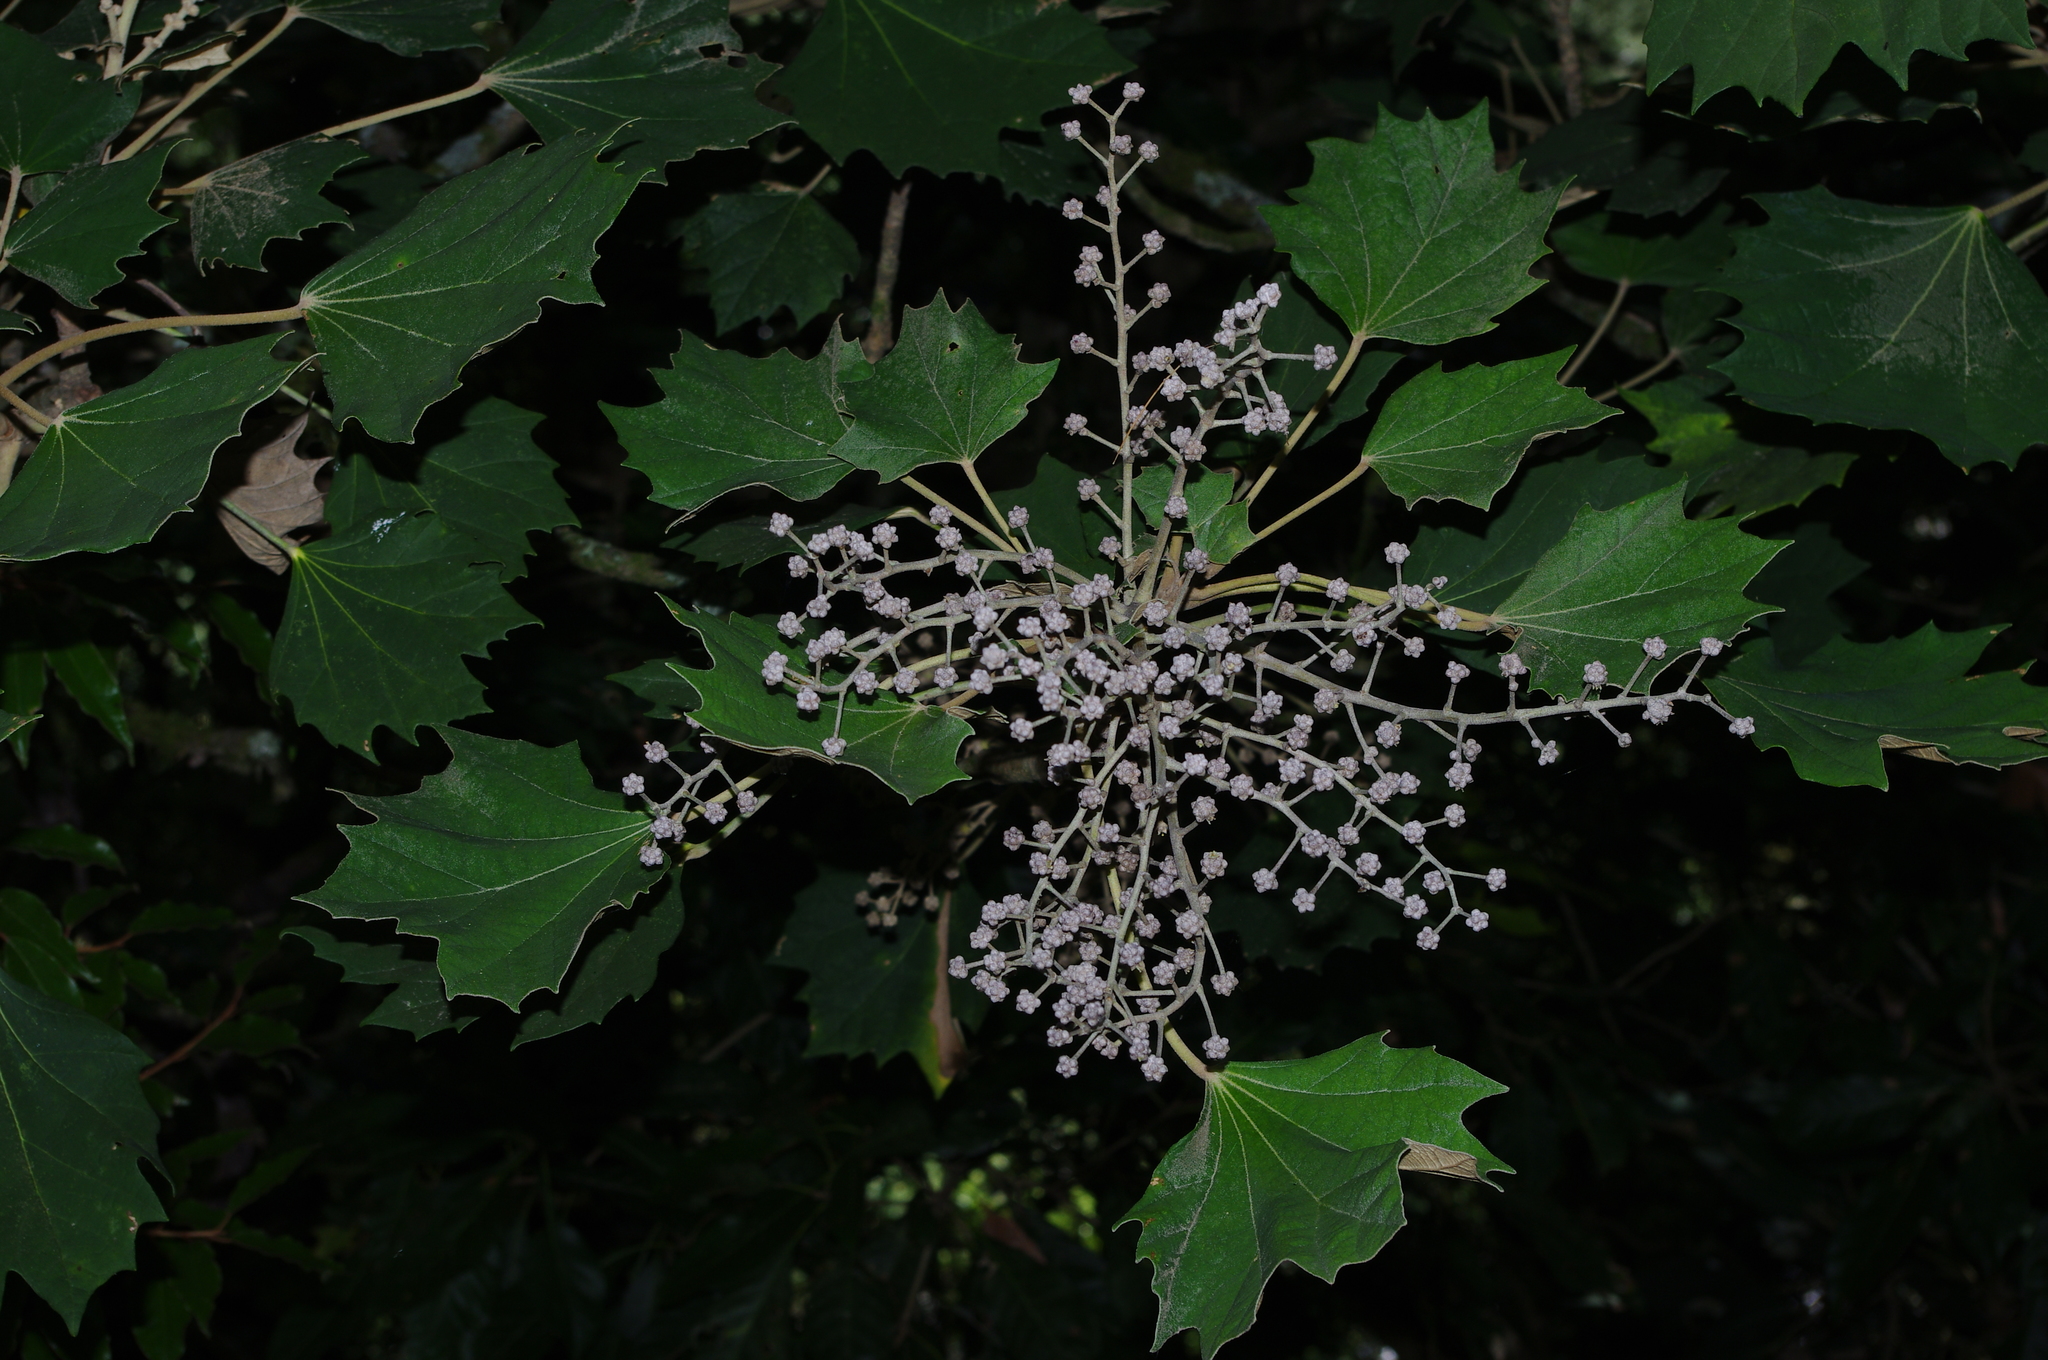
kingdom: Plantae
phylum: Tracheophyta
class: Magnoliopsida
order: Apiales
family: Araliaceae
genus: Sinopanax
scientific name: Sinopanax formosanus
